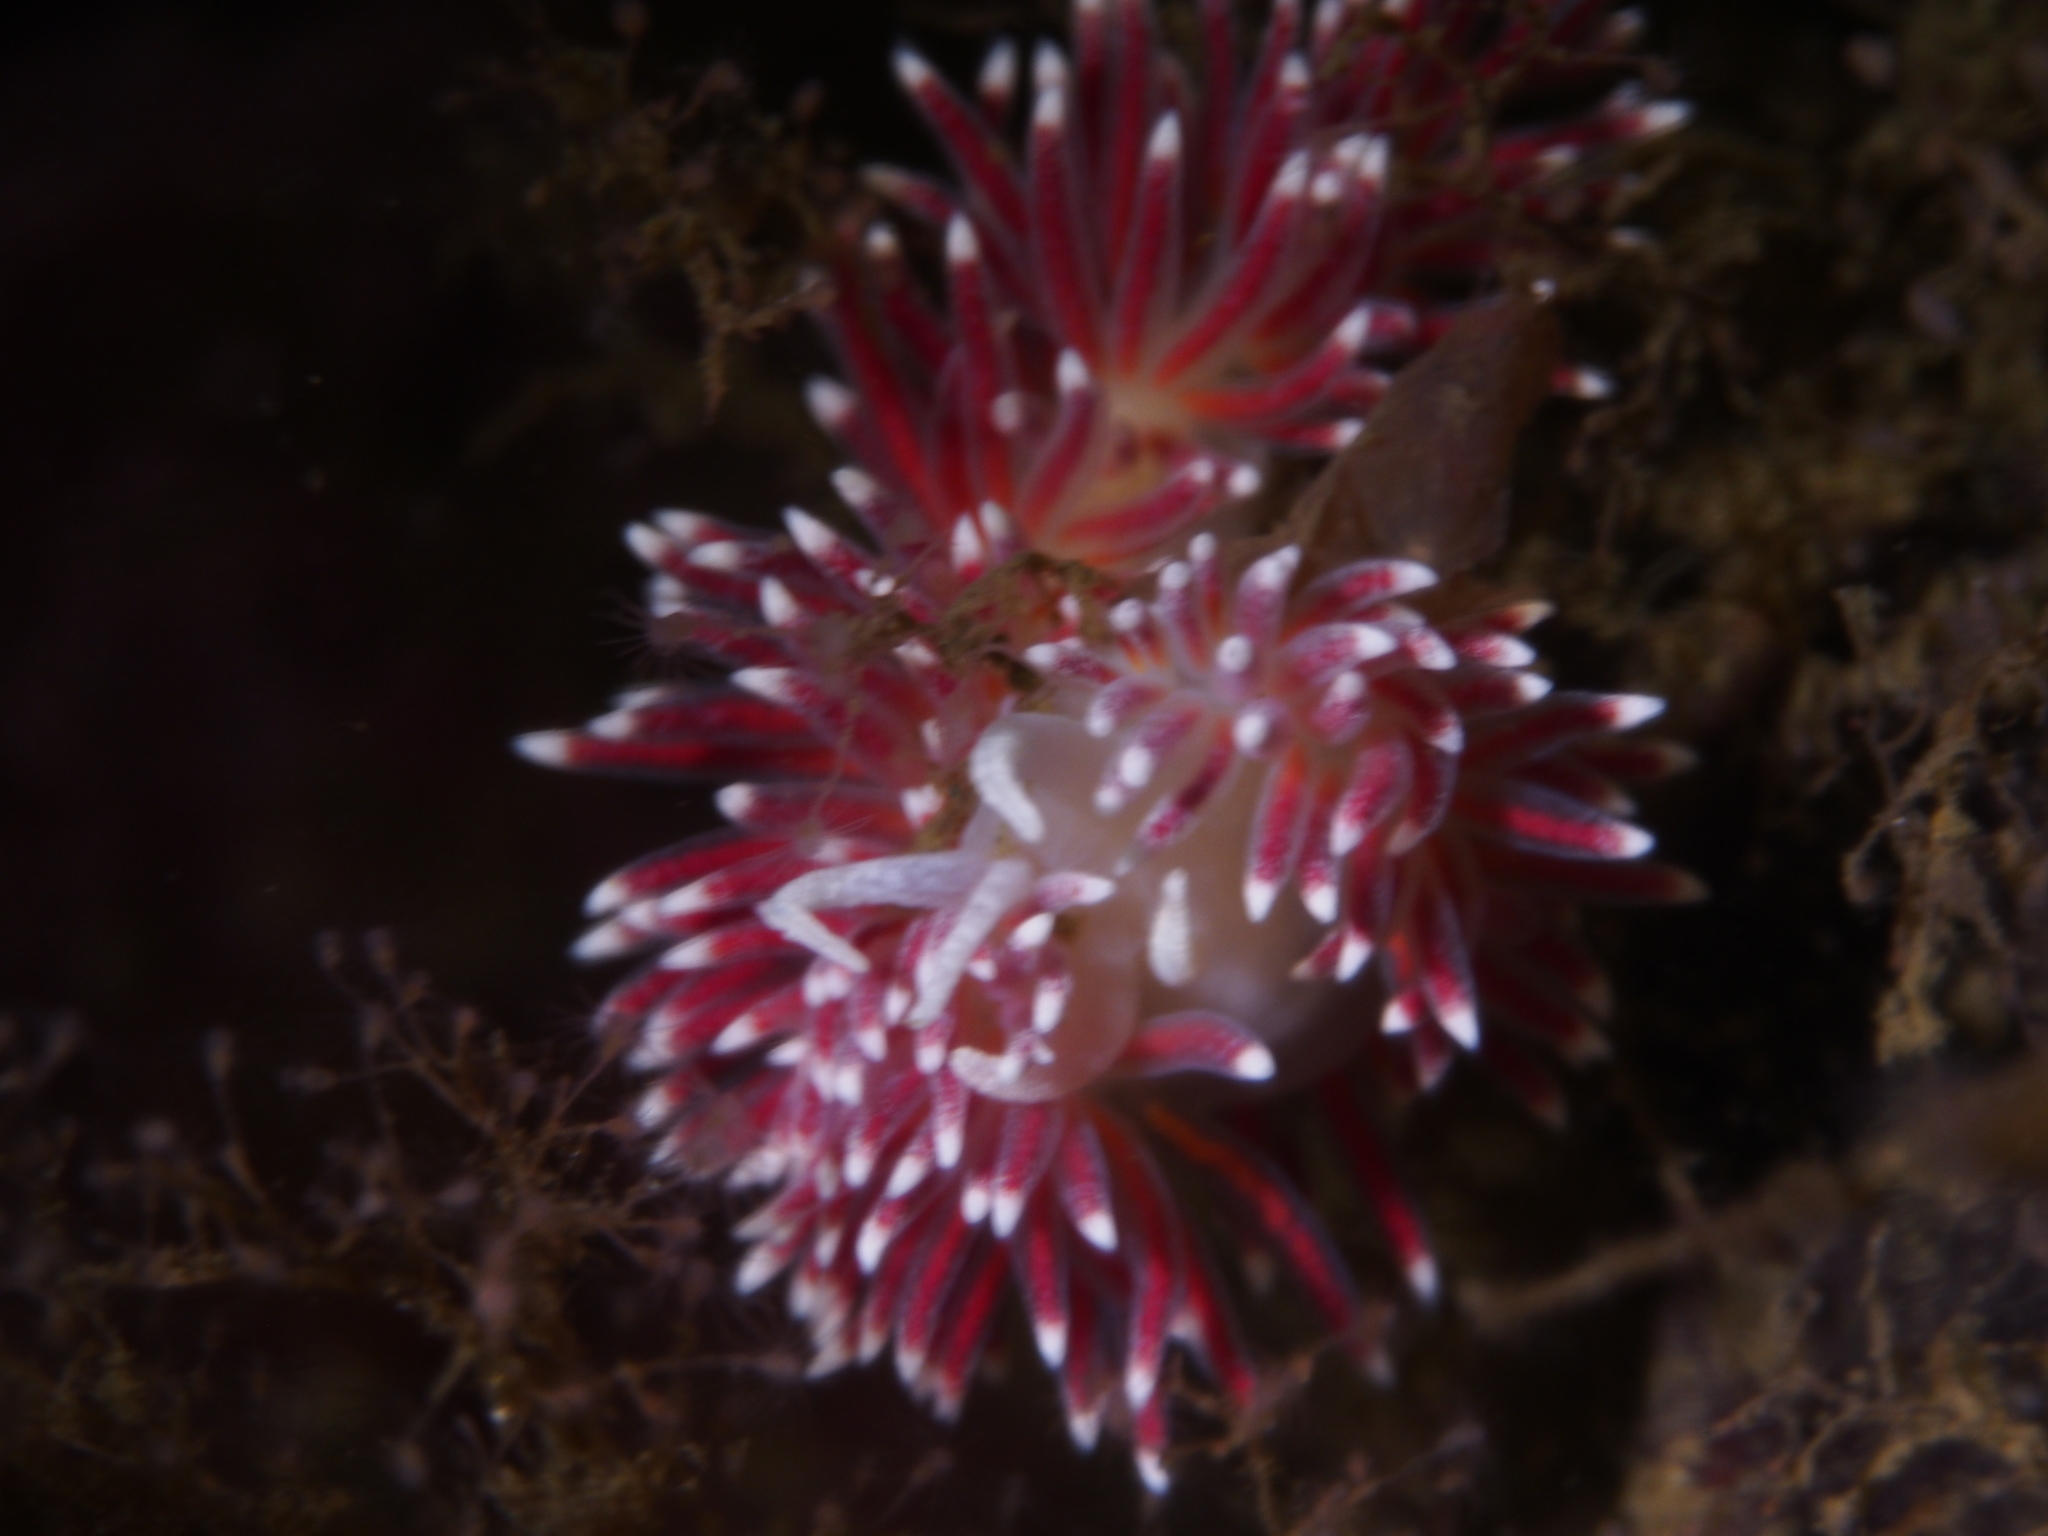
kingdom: Animalia
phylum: Mollusca
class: Gastropoda
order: Nudibranchia
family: Flabellinidae
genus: Carronella
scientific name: Carronella pellucida
